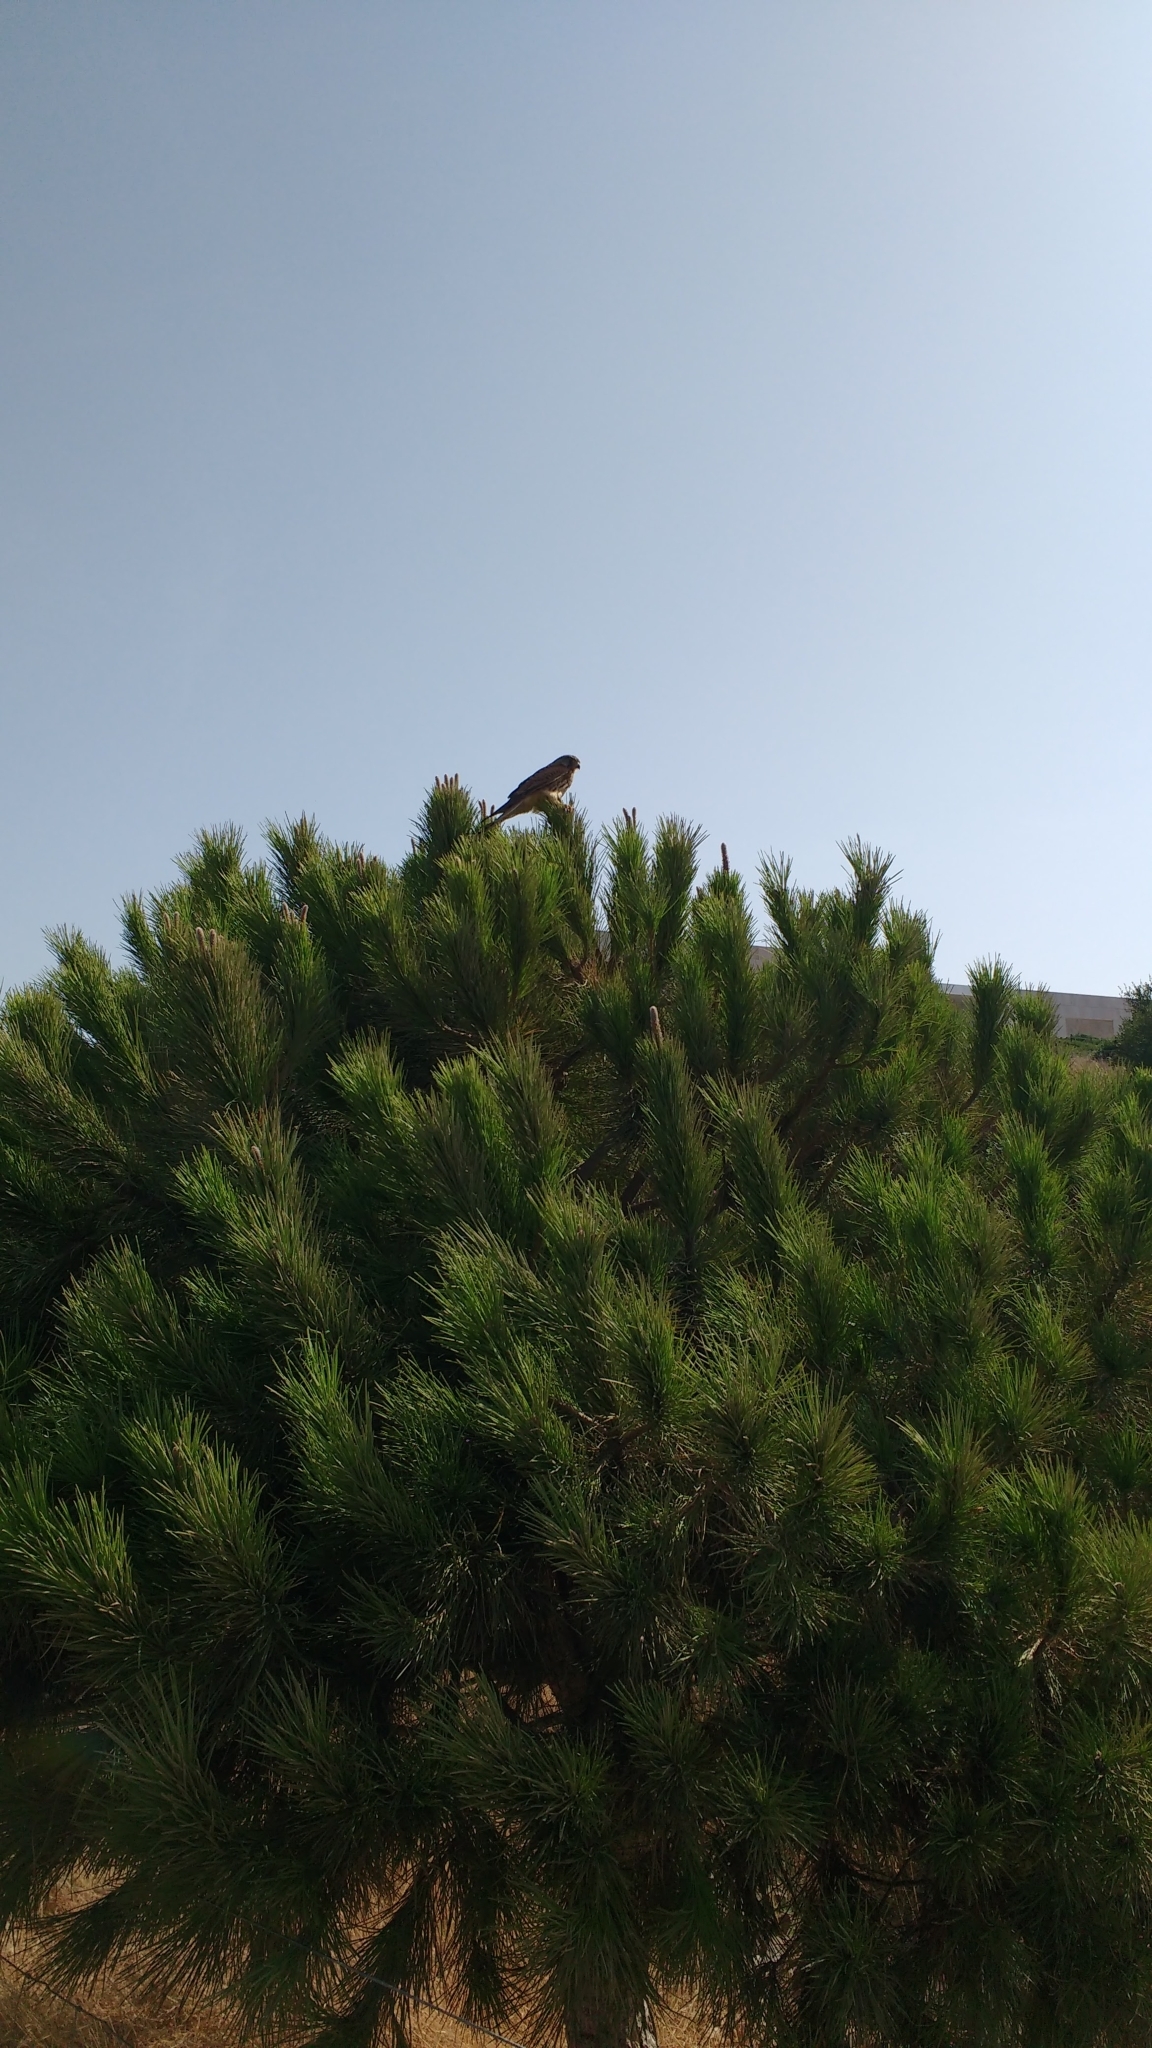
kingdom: Animalia
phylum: Chordata
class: Aves
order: Falconiformes
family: Falconidae
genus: Falco
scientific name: Falco tinnunculus
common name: Common kestrel
